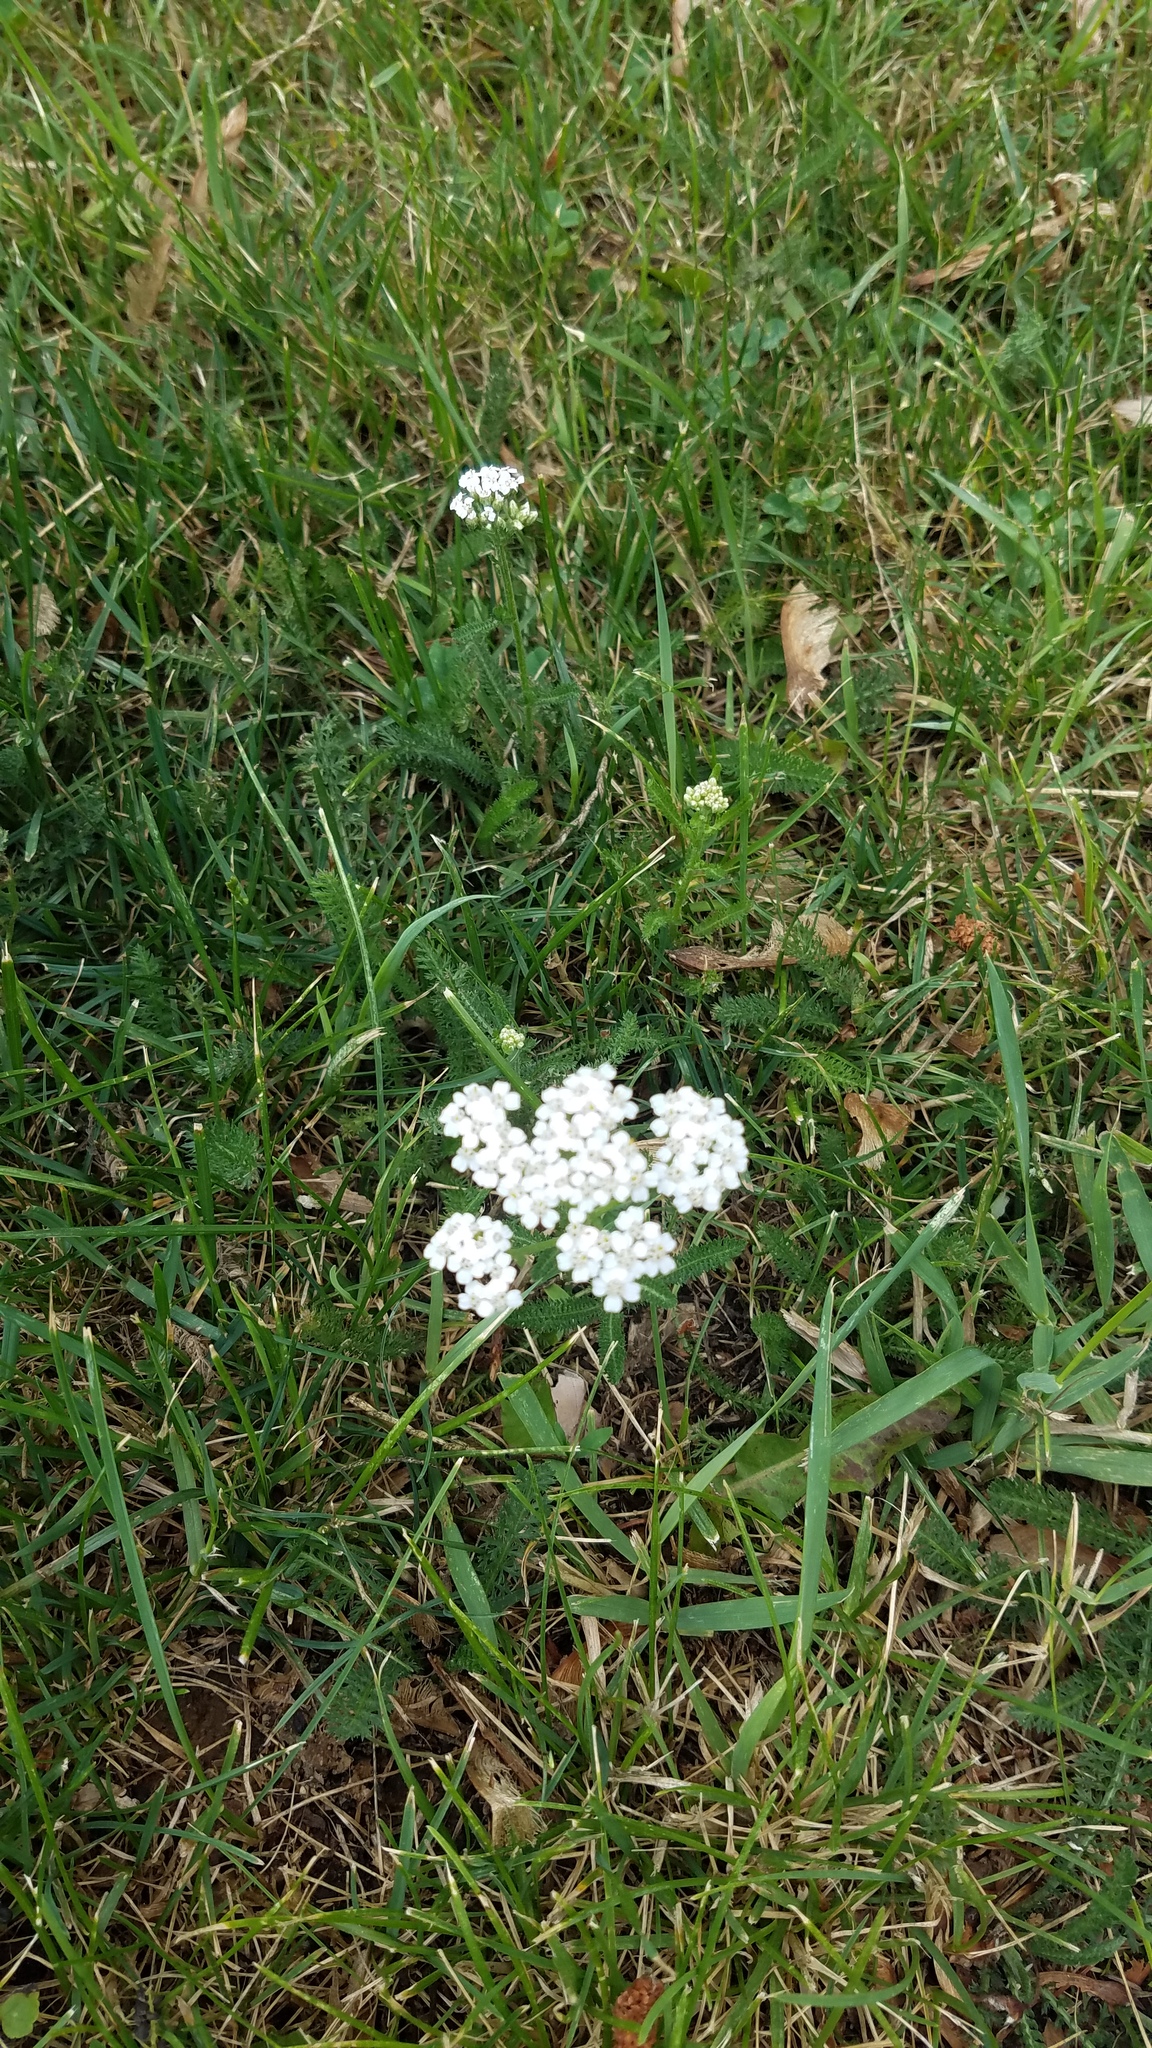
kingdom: Plantae
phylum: Tracheophyta
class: Magnoliopsida
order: Asterales
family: Asteraceae
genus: Achillea
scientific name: Achillea millefolium
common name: Yarrow
